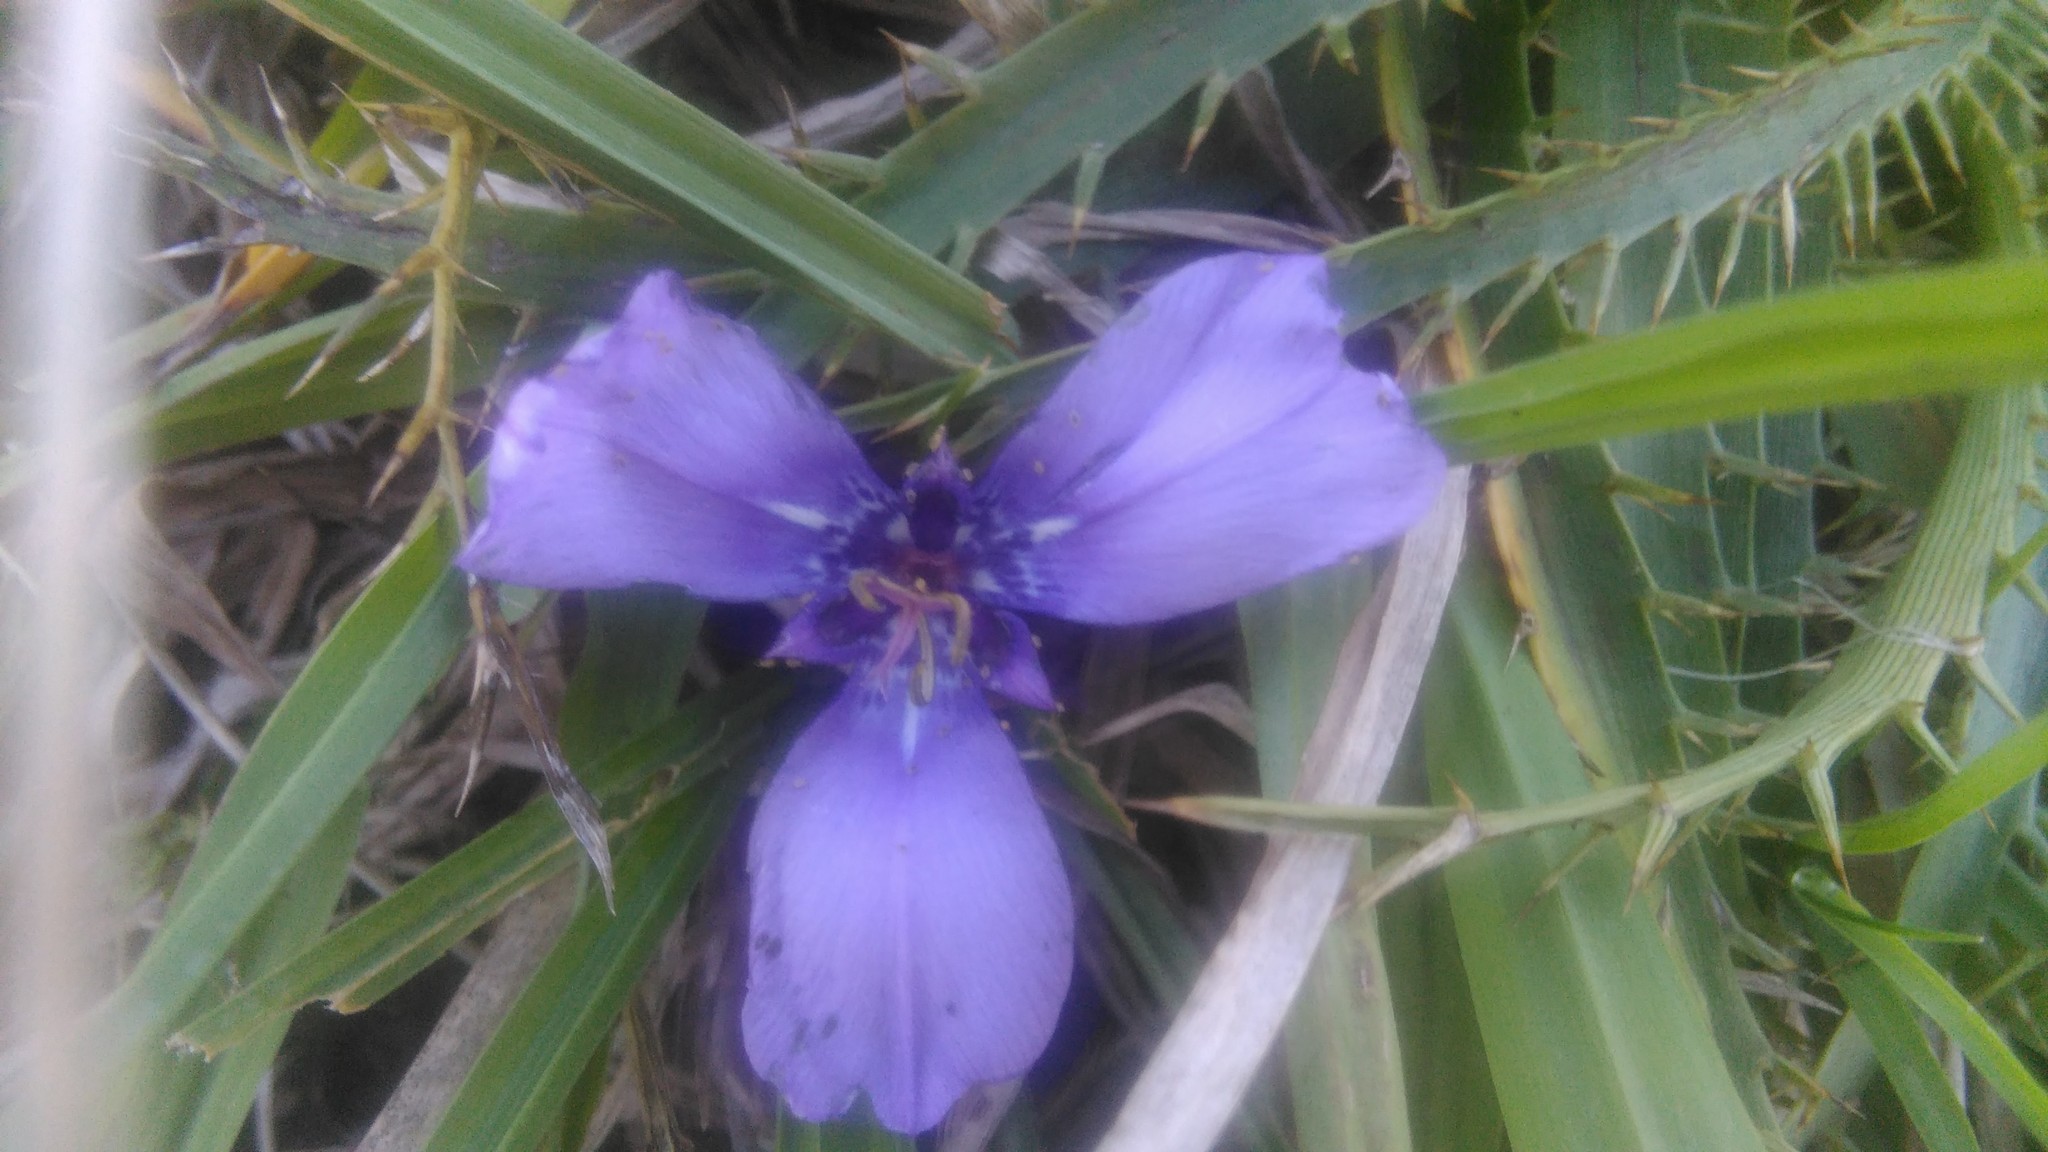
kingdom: Plantae
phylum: Tracheophyta
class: Liliopsida
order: Asparagales
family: Iridaceae
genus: Herbertia
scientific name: Herbertia lahue
